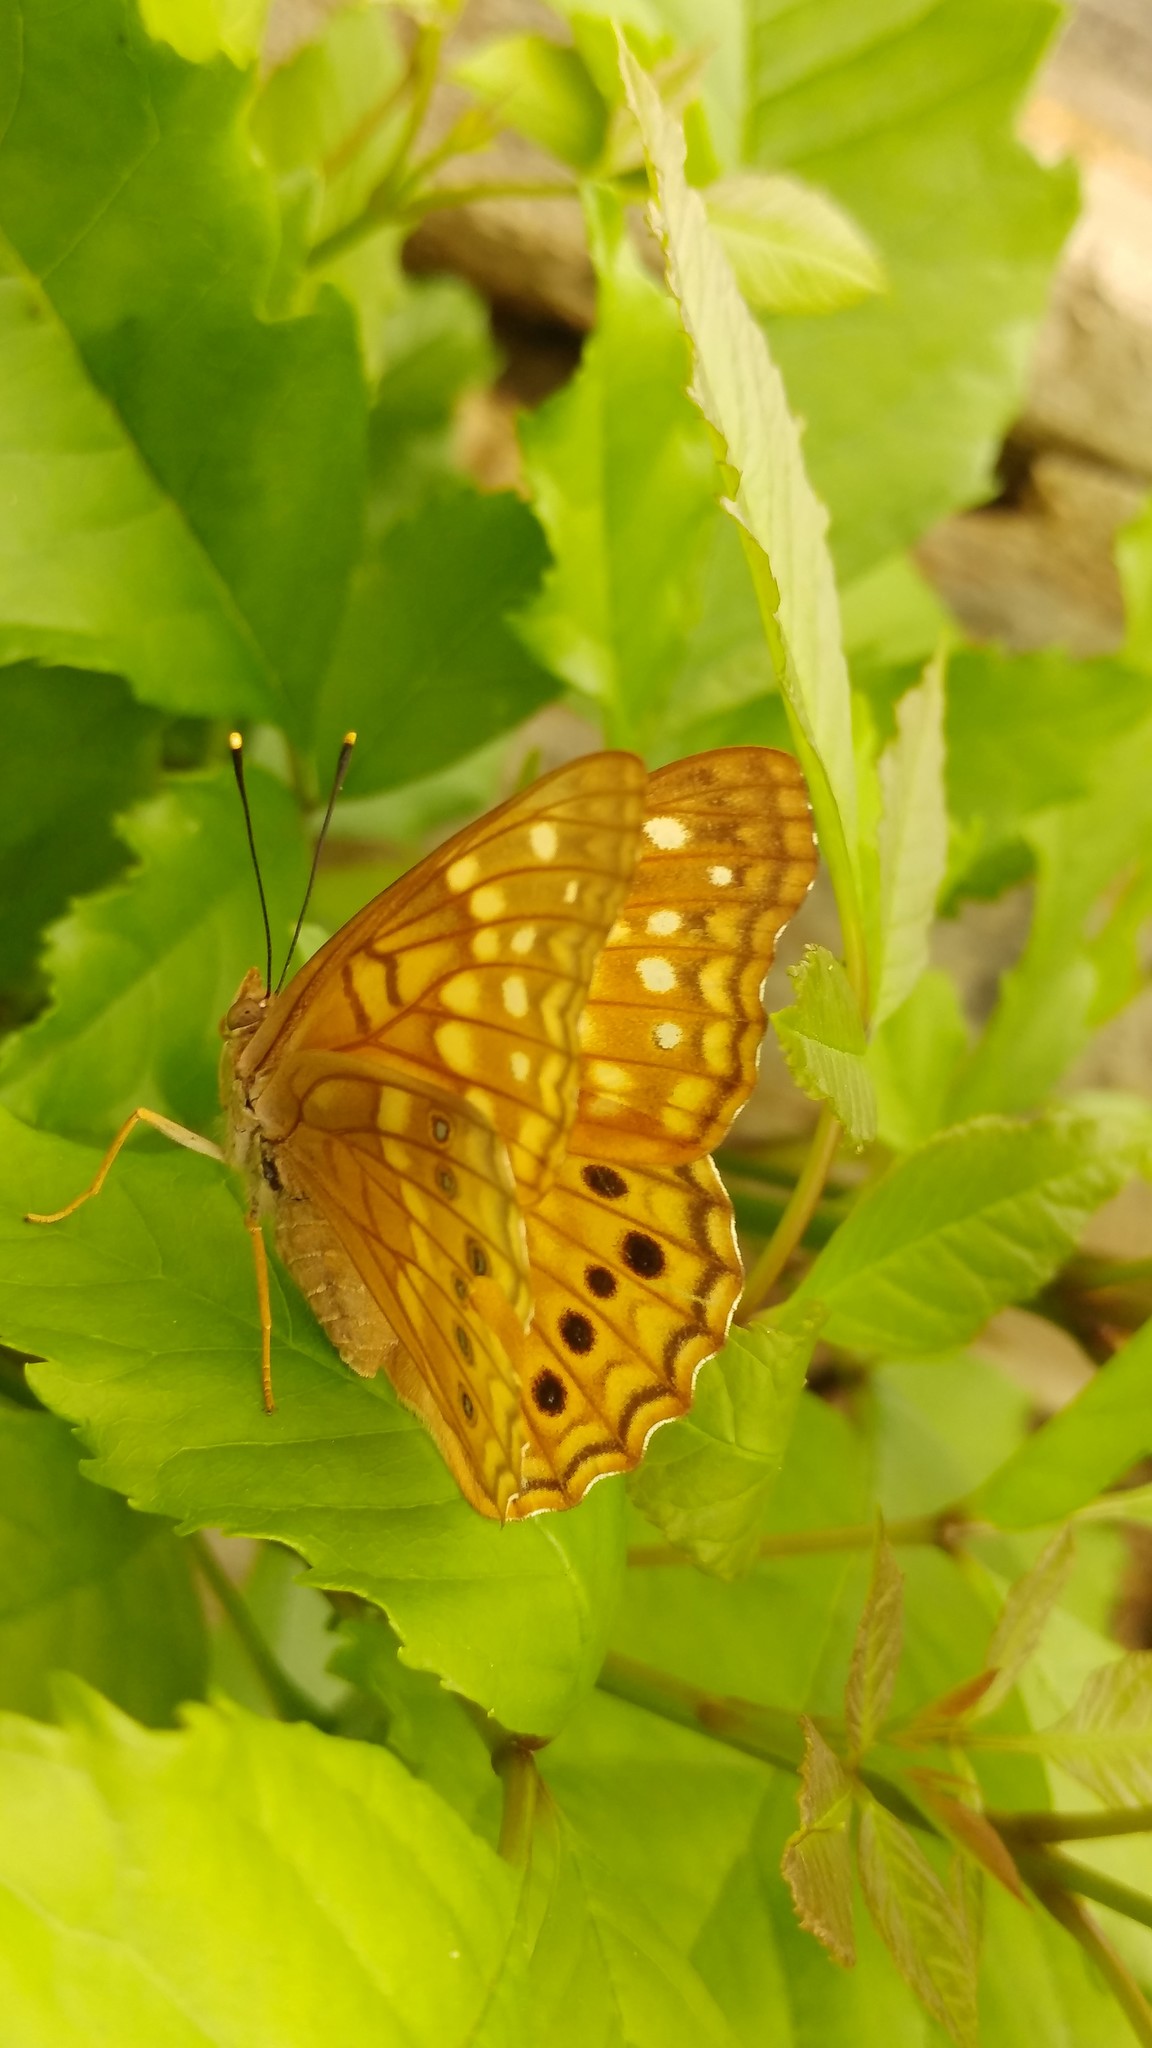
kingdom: Animalia
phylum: Arthropoda
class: Insecta
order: Lepidoptera
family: Nymphalidae
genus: Asterocampa
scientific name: Asterocampa clyton
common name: Tawny emperor
